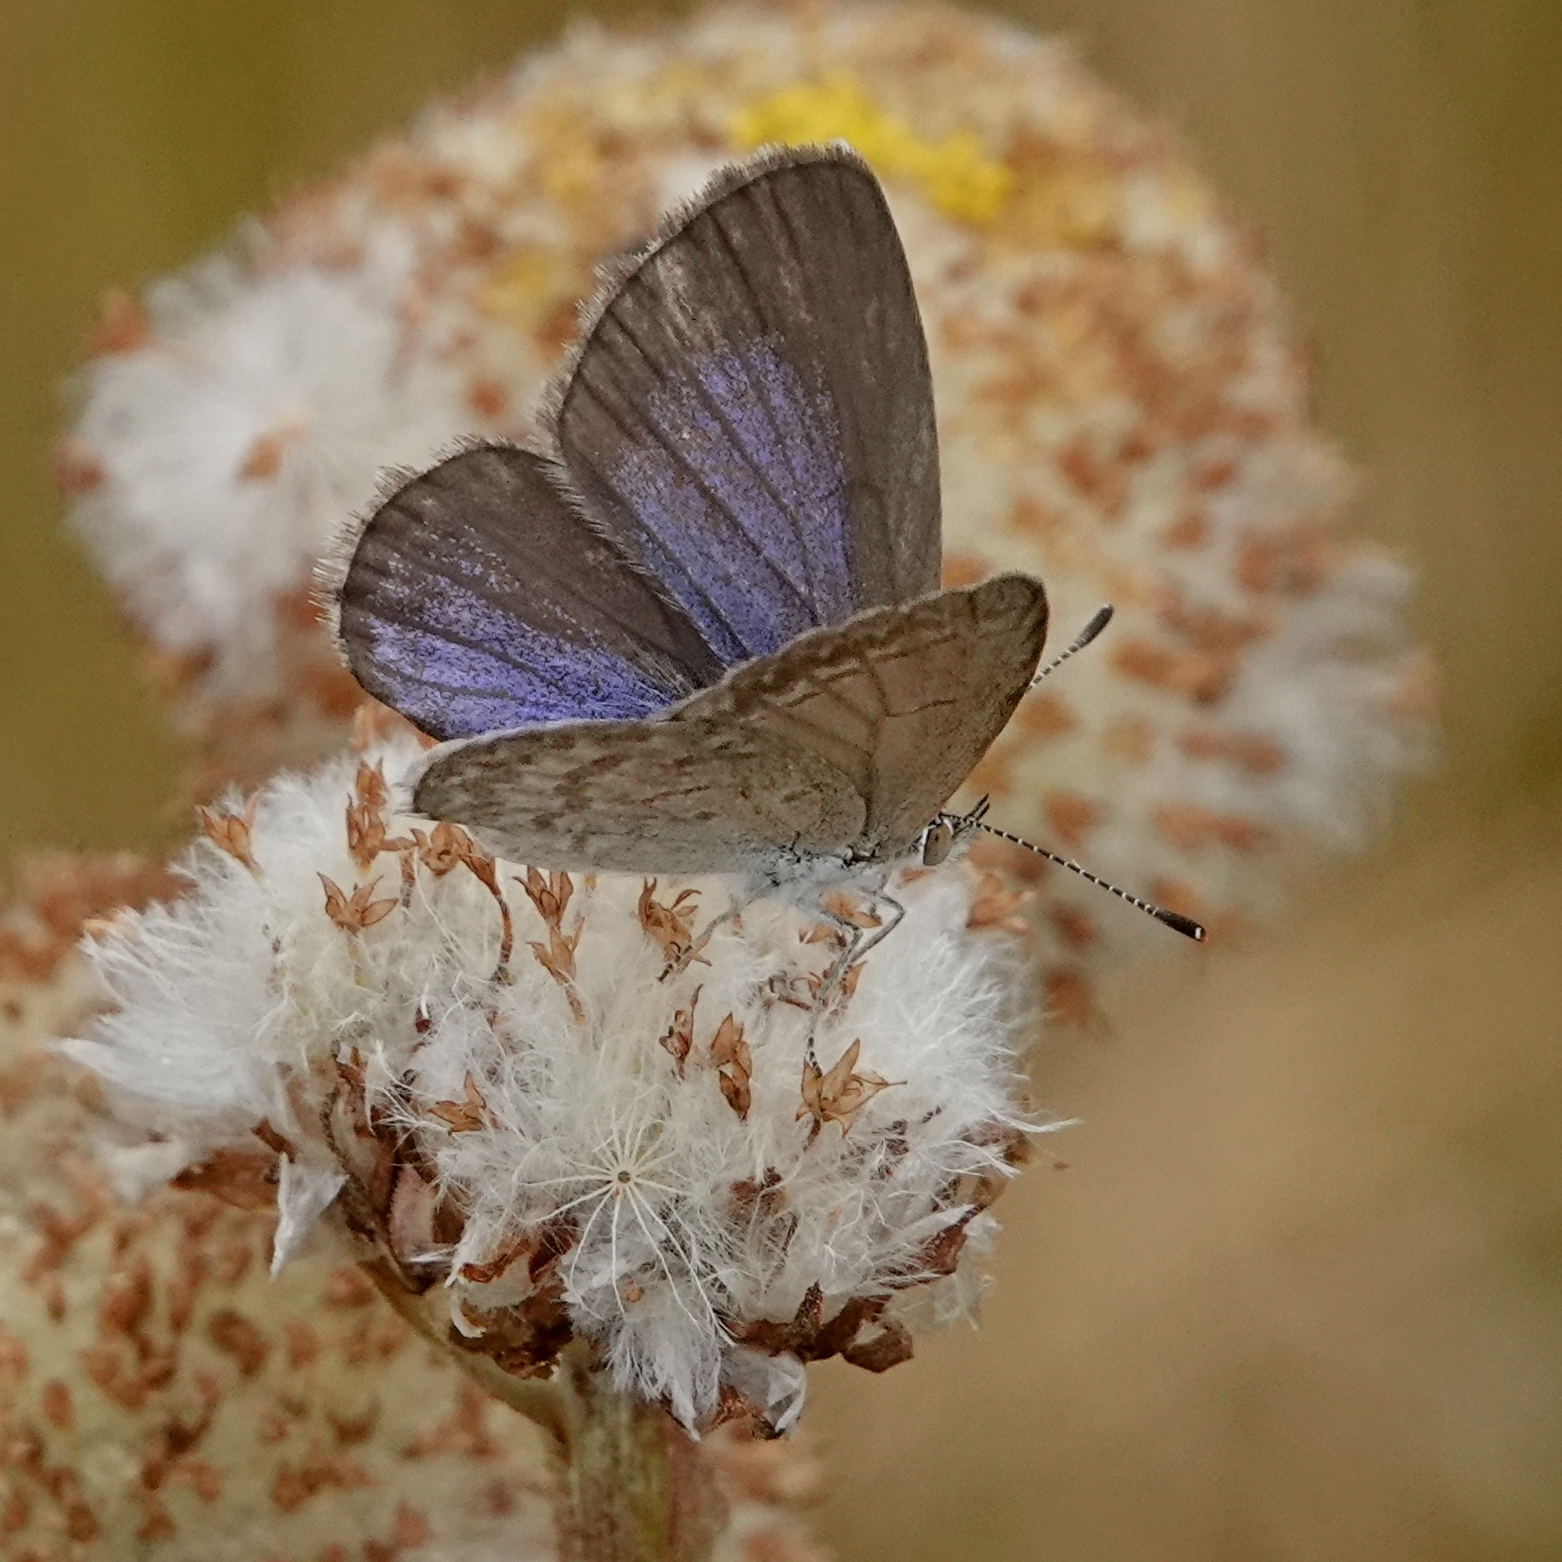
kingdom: Animalia
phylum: Arthropoda
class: Insecta
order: Lepidoptera
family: Lycaenidae
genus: Zizina
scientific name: Zizina labradus
